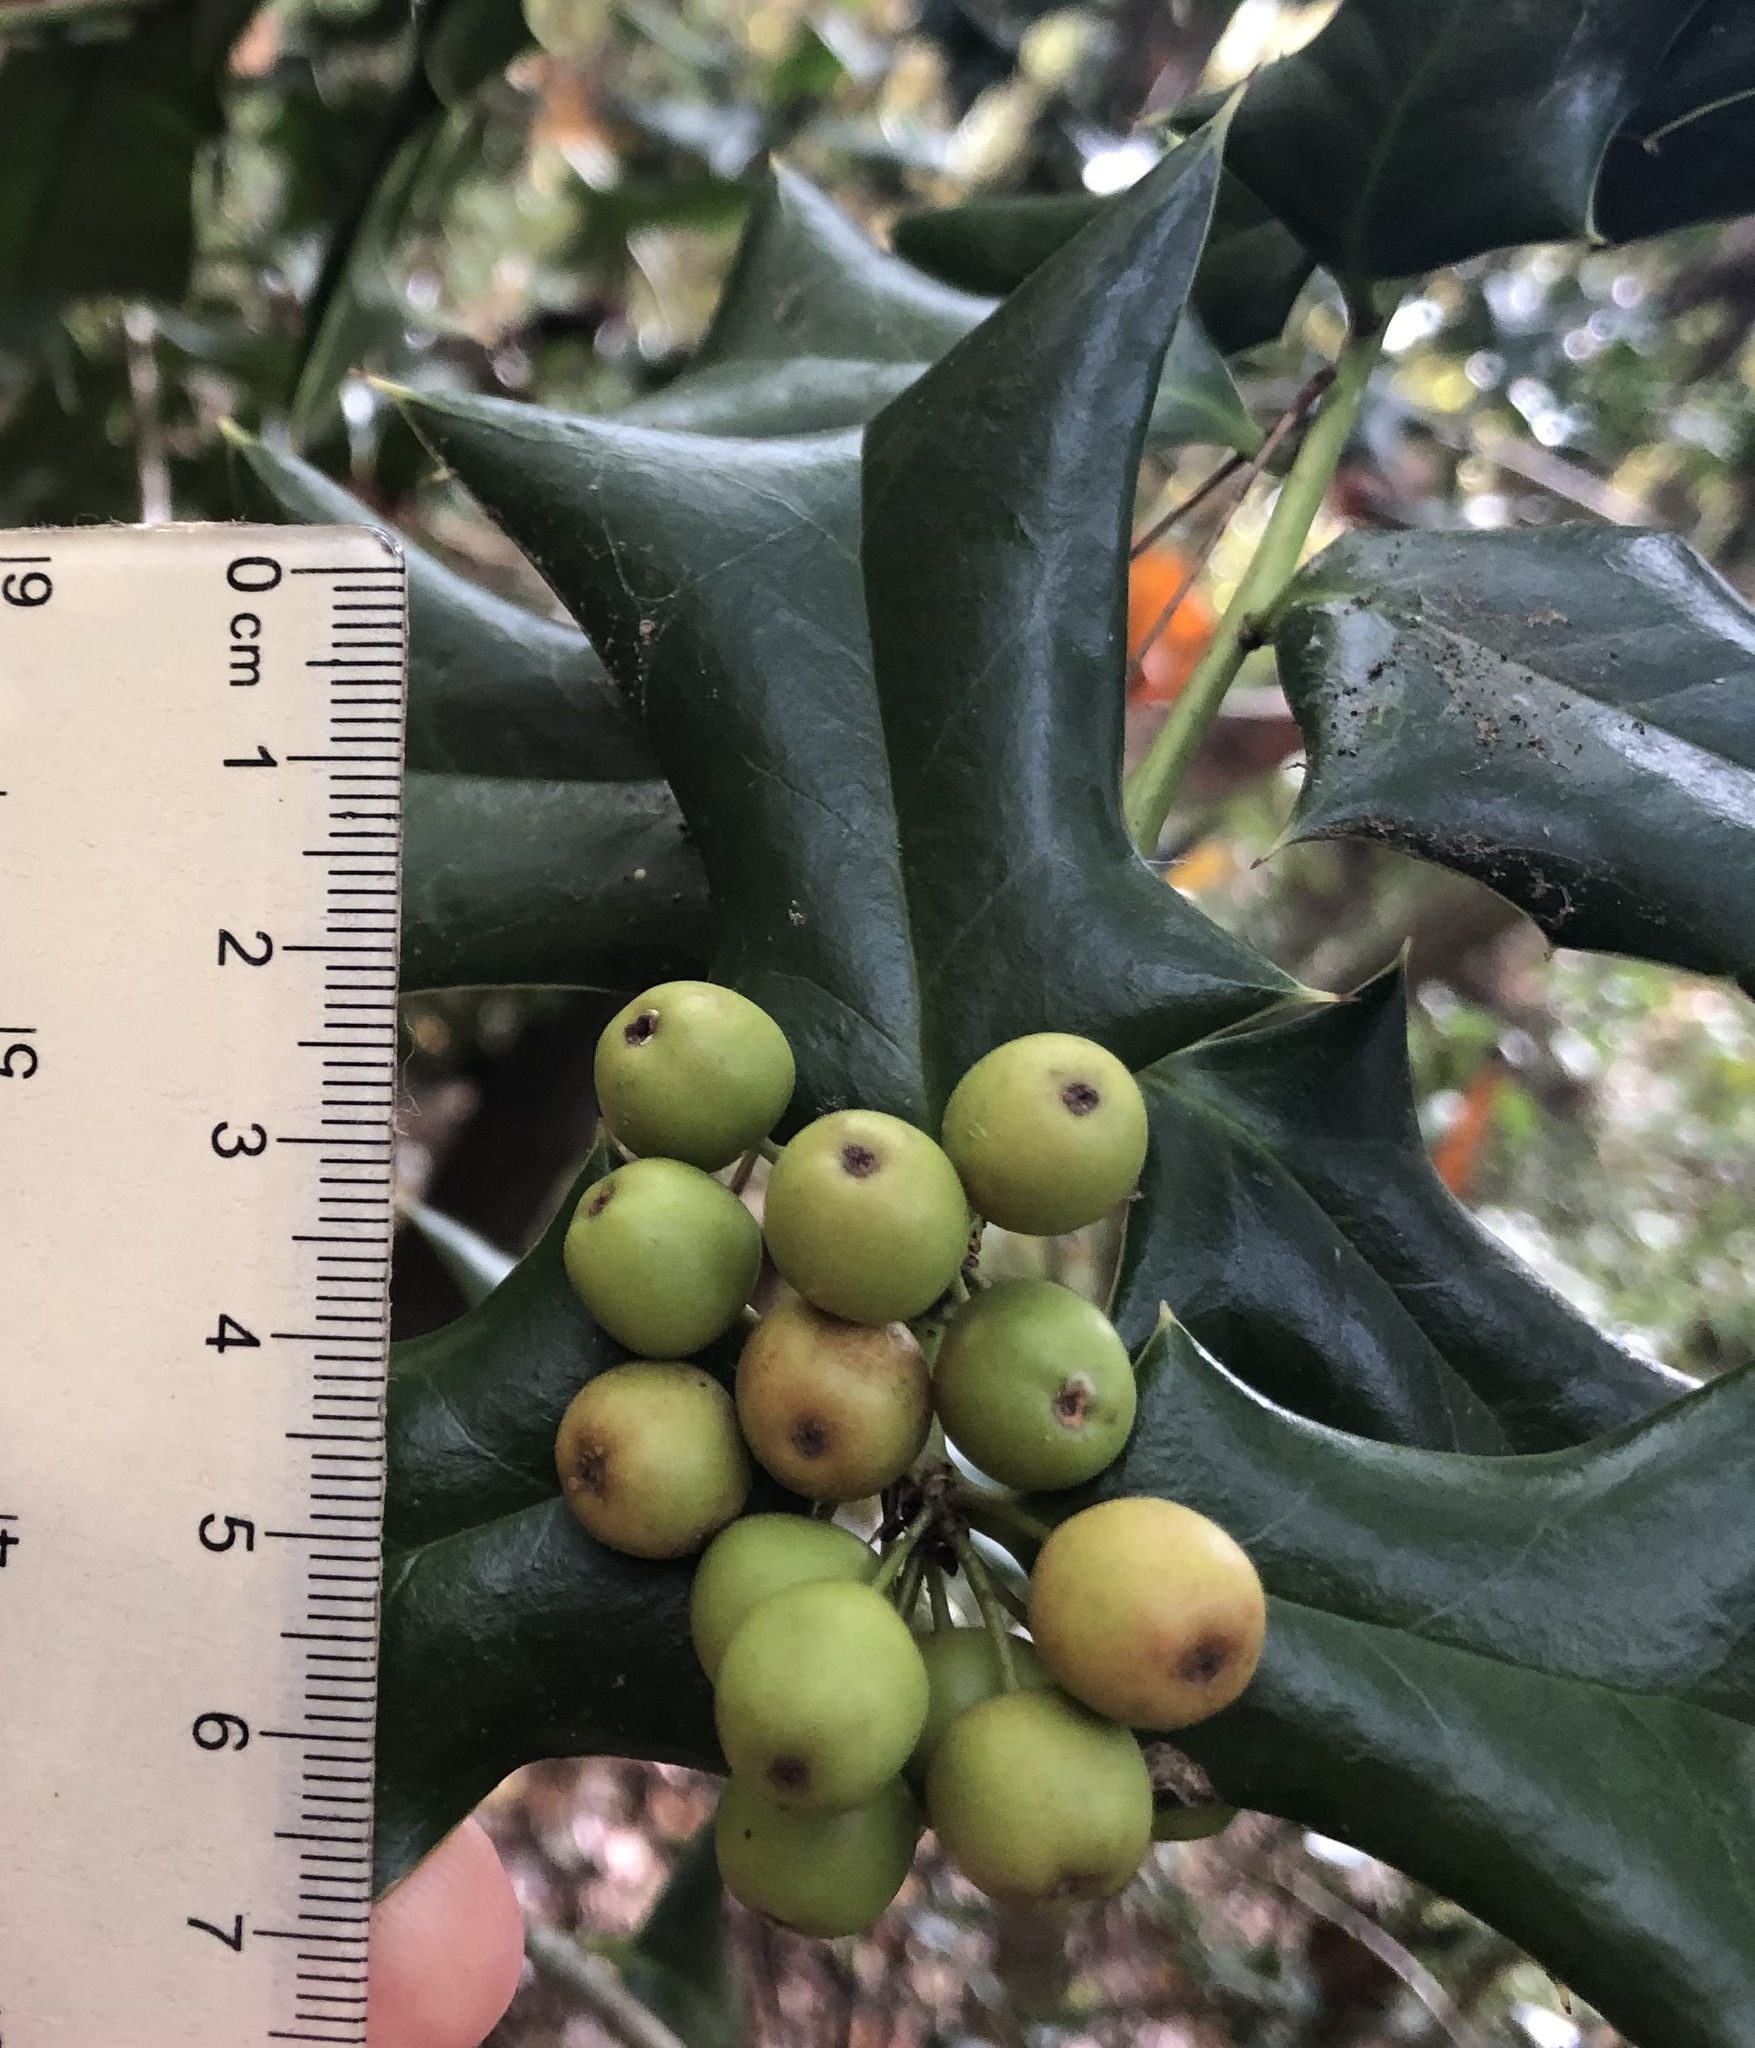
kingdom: Plantae
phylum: Tracheophyta
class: Magnoliopsida
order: Aquifoliales
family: Aquifoliaceae
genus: Ilex
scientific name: Ilex cornuta
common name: Chinese holly
